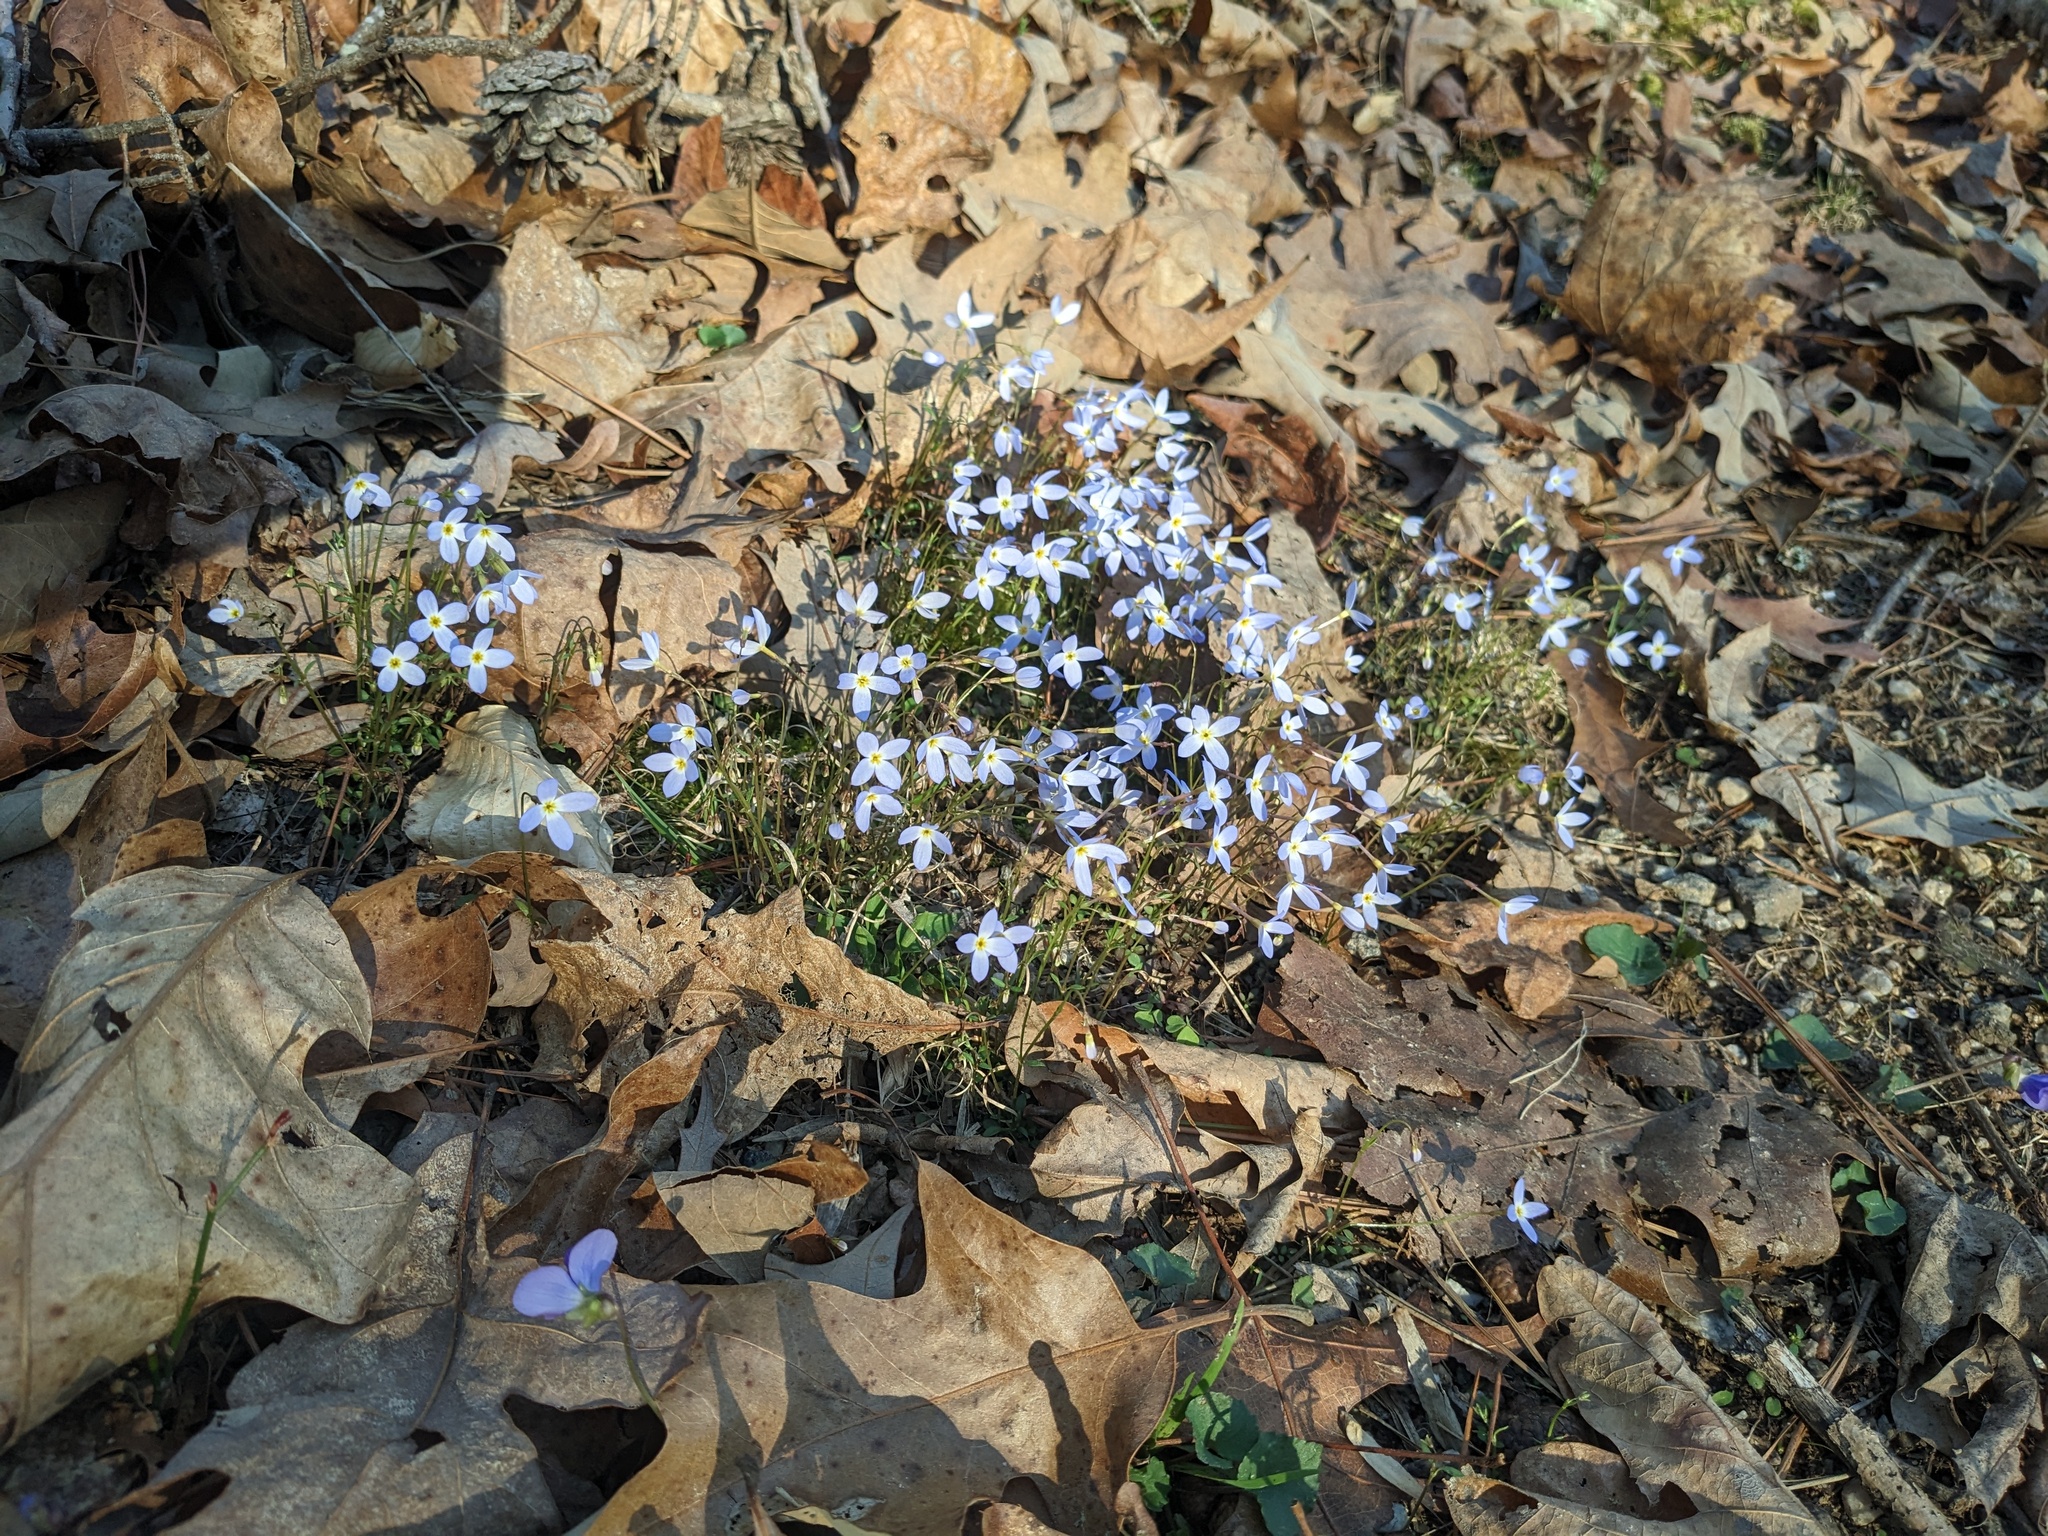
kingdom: Plantae
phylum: Tracheophyta
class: Magnoliopsida
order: Gentianales
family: Rubiaceae
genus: Houstonia
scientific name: Houstonia caerulea
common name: Bluets
